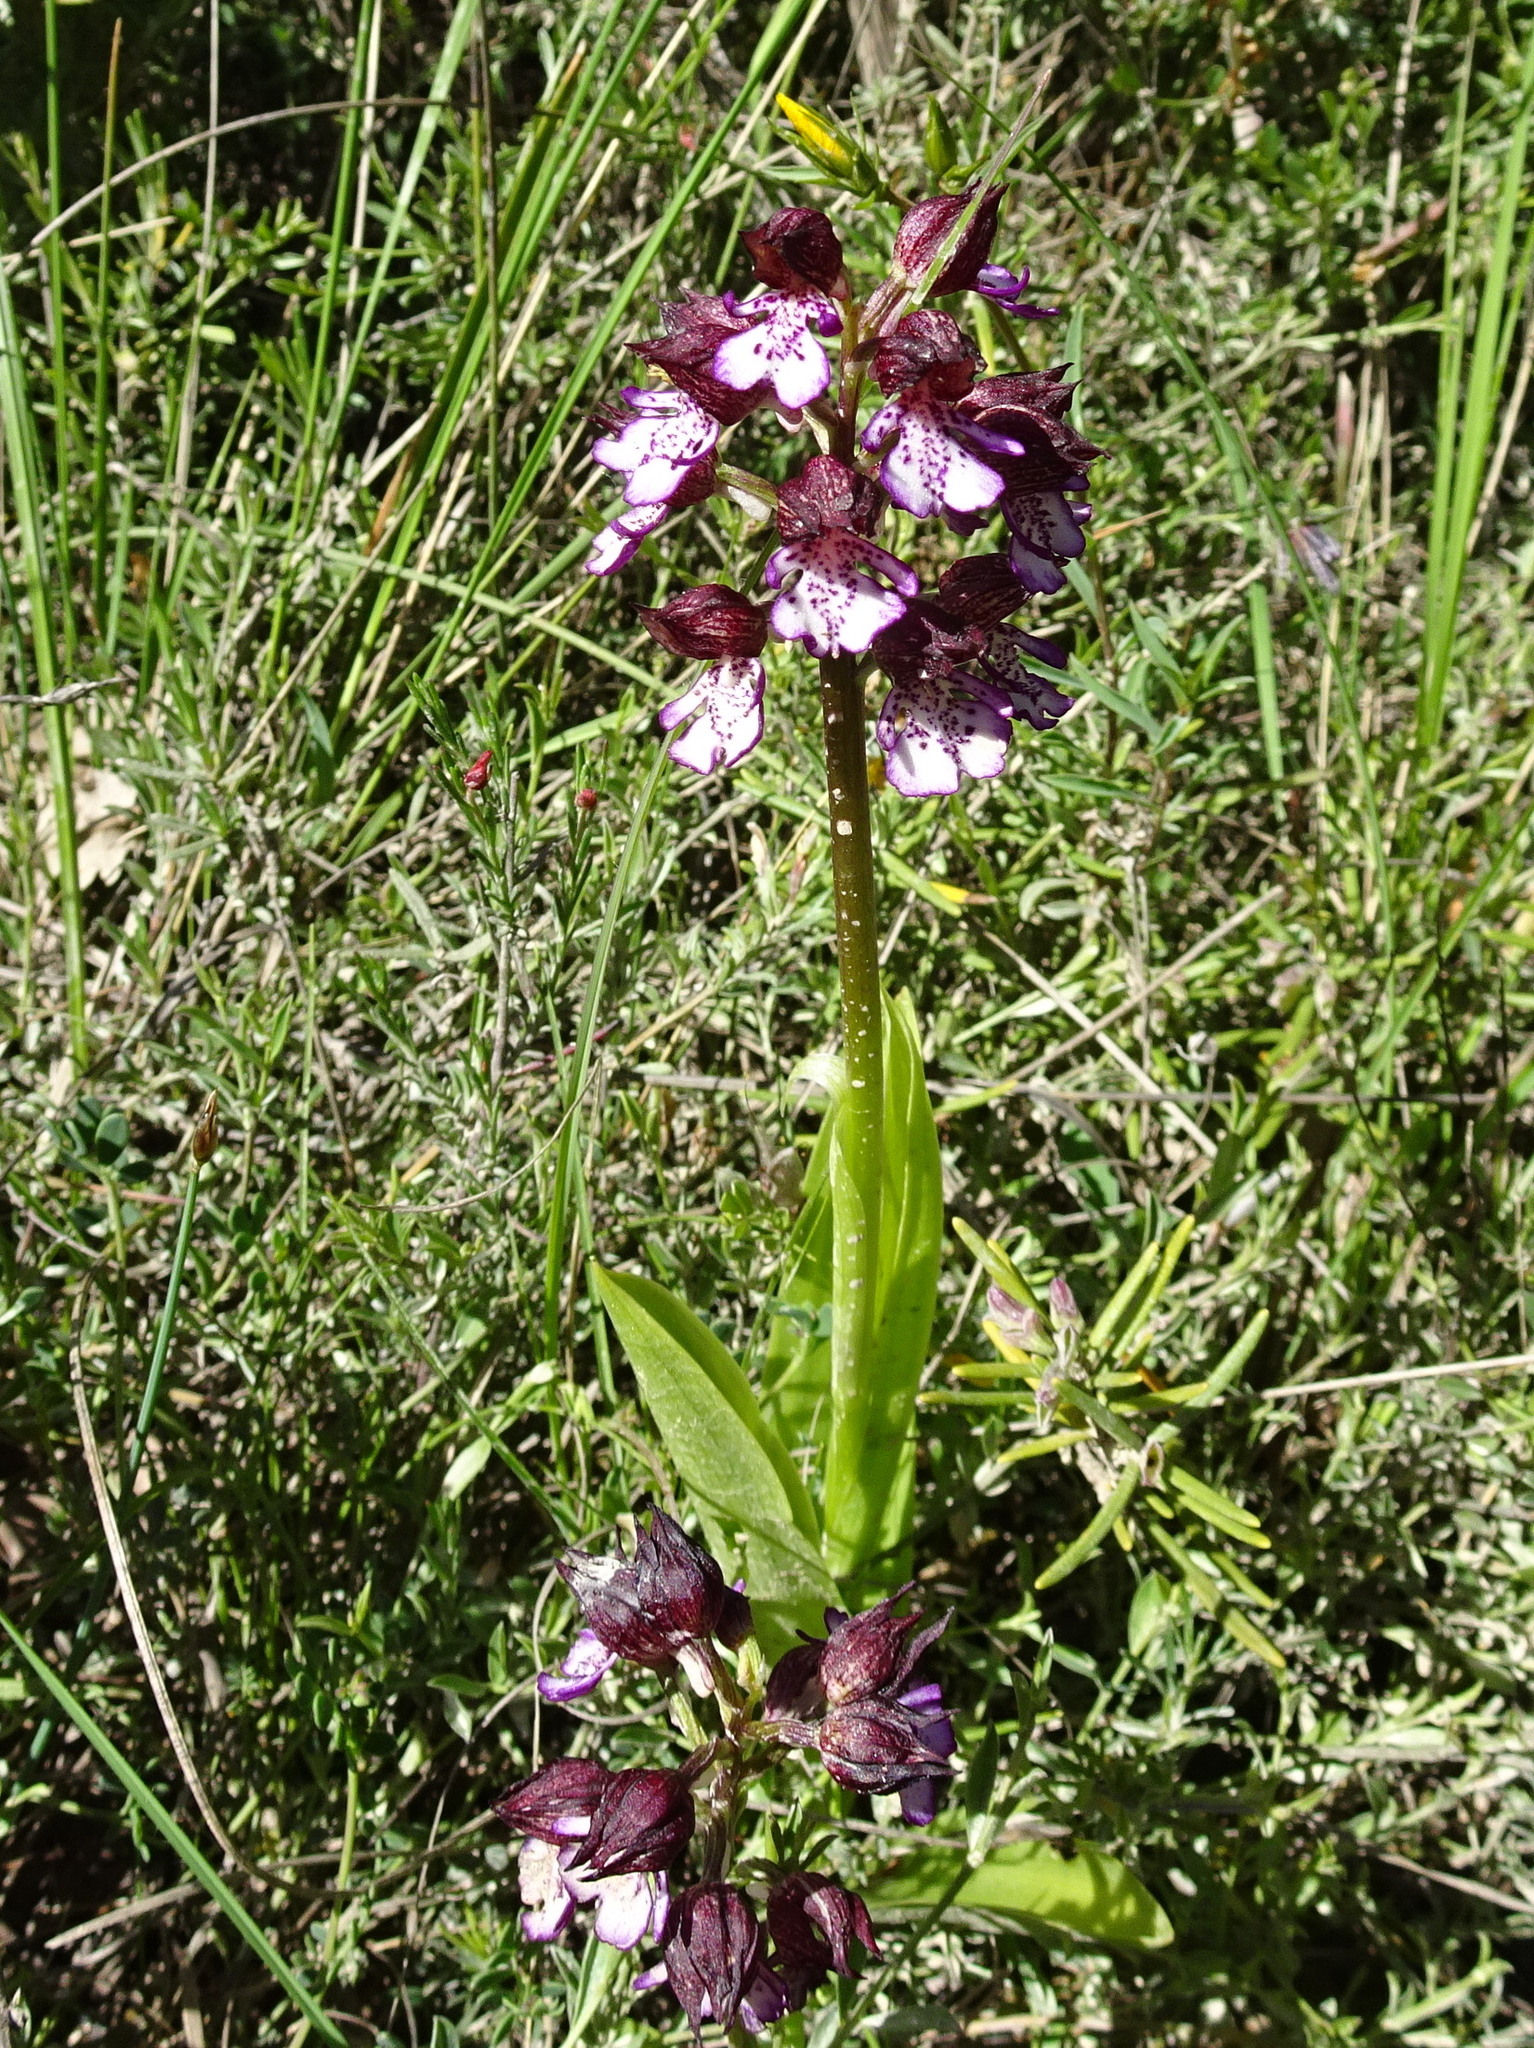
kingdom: Plantae
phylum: Tracheophyta
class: Liliopsida
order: Asparagales
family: Orchidaceae
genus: Orchis
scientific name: Orchis purpurea
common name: Lady orchid
